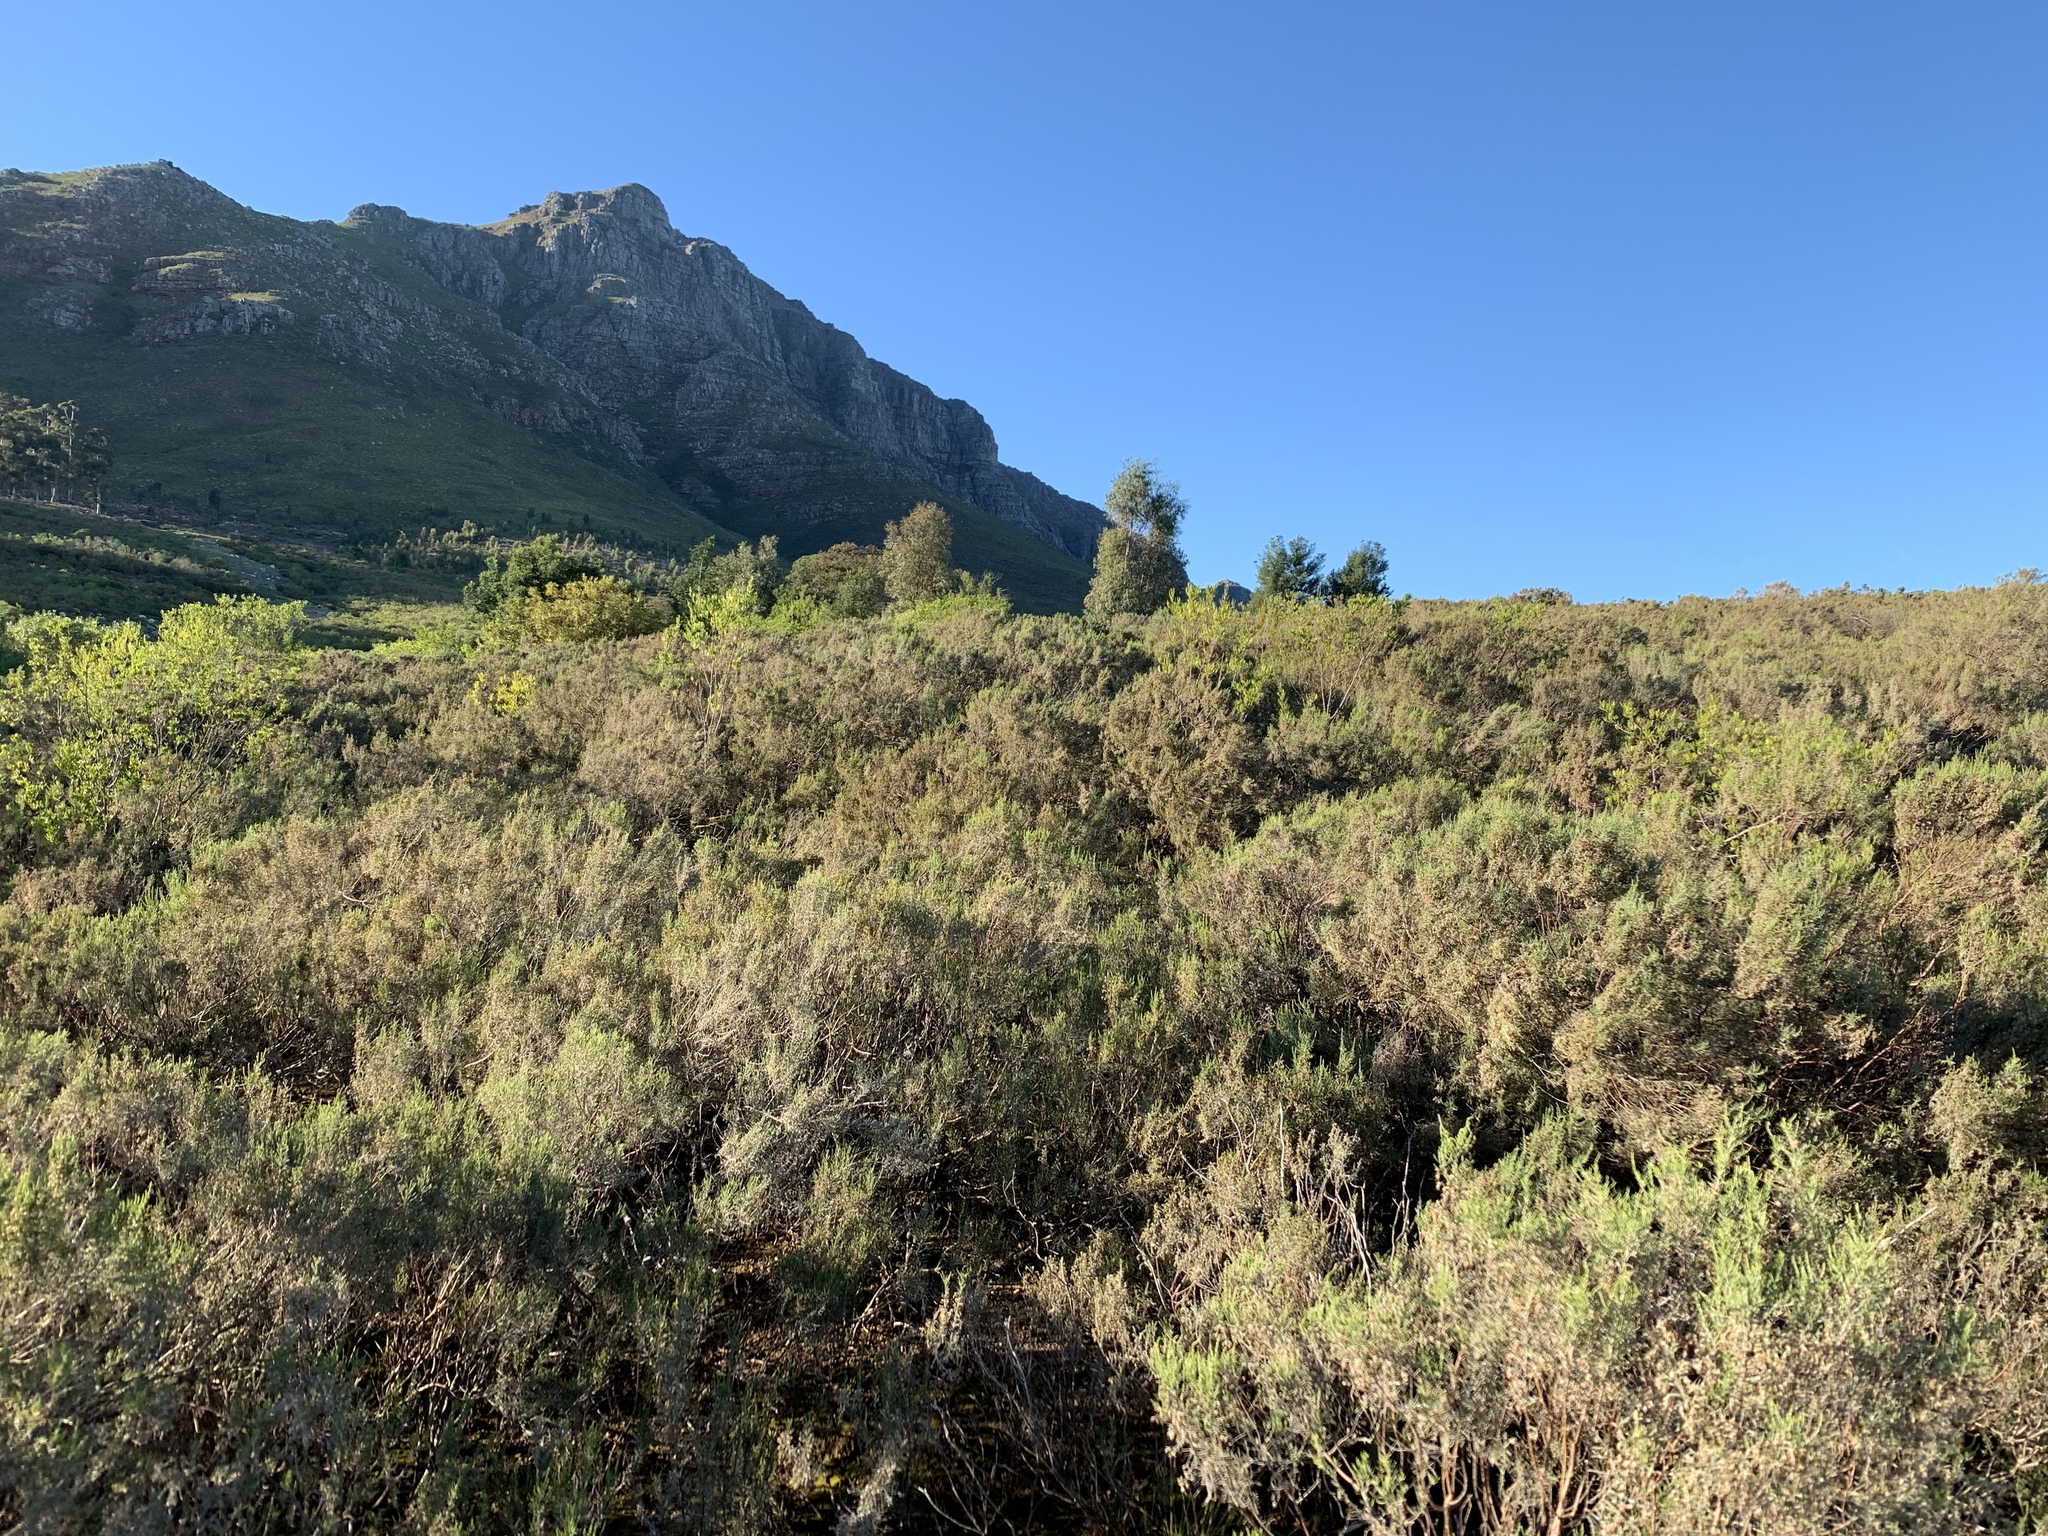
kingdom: Plantae
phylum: Tracheophyta
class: Magnoliopsida
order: Asterales
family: Asteraceae
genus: Dicerothamnus
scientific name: Dicerothamnus rhinocerotis
